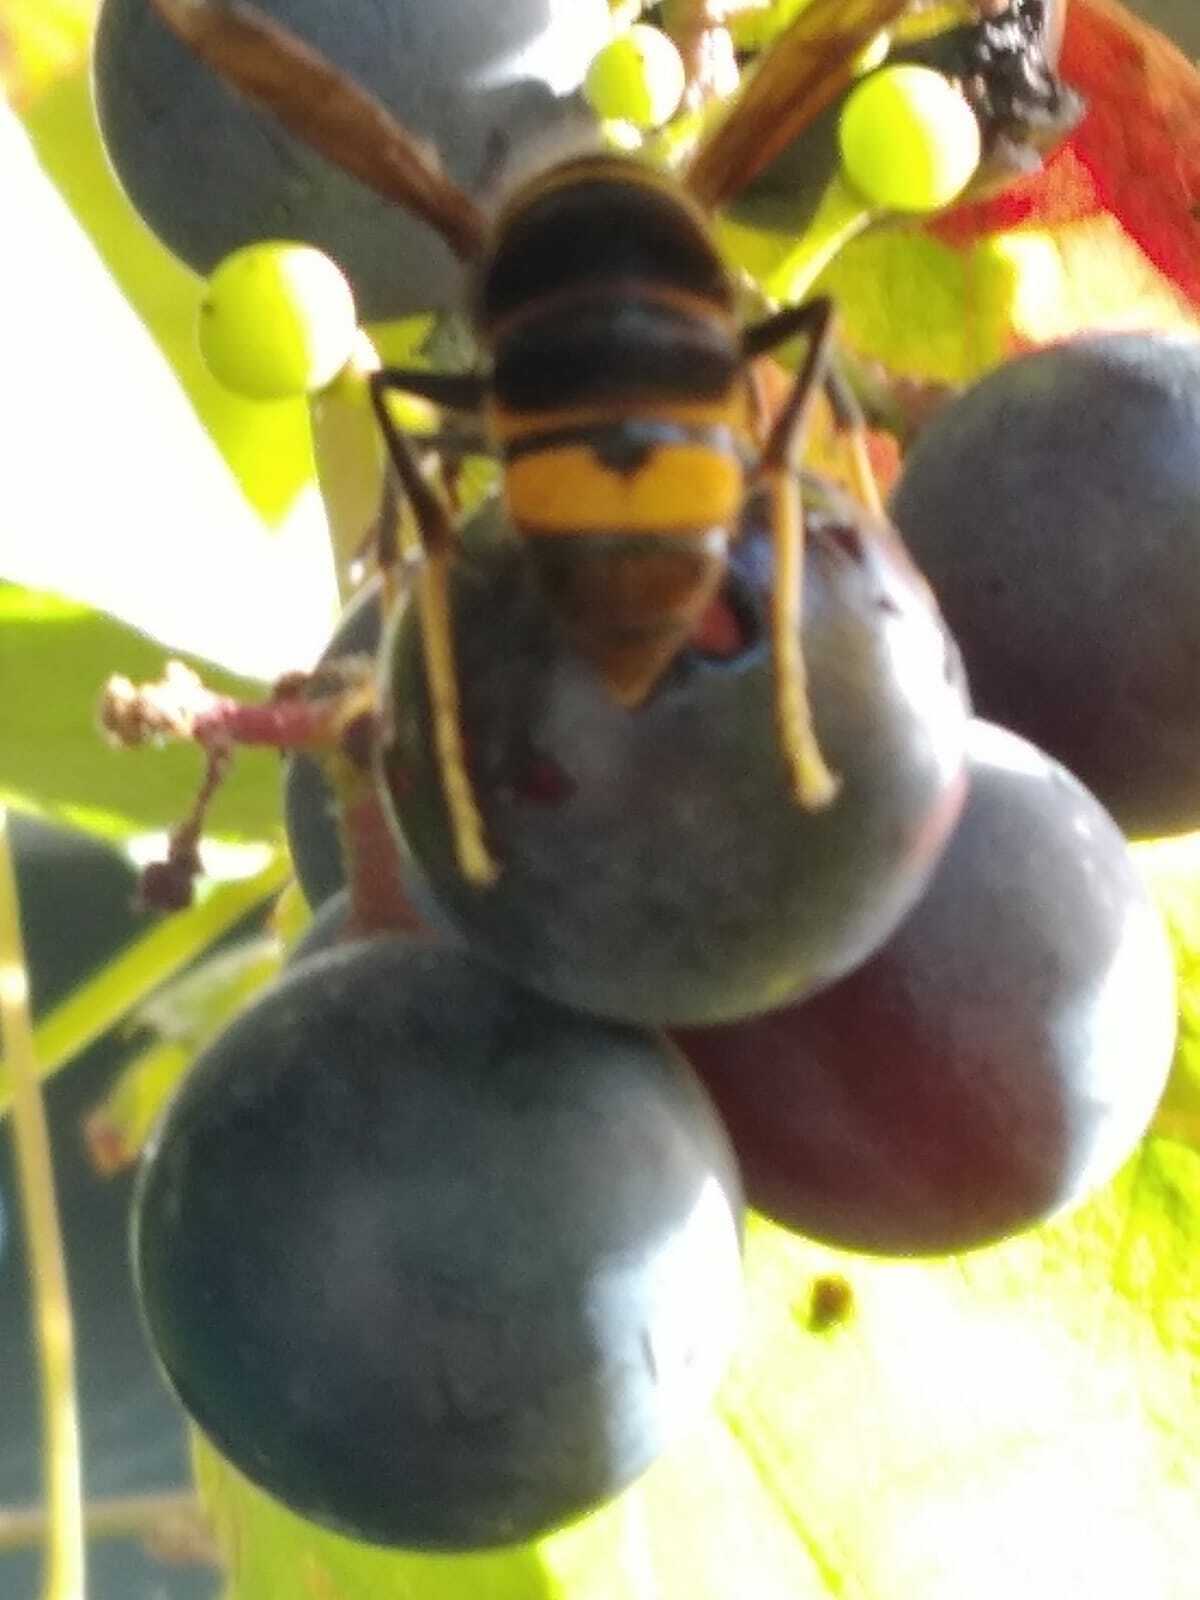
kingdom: Animalia
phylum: Arthropoda
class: Insecta
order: Hymenoptera
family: Vespidae
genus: Vespa
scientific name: Vespa velutina
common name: Asian hornet
